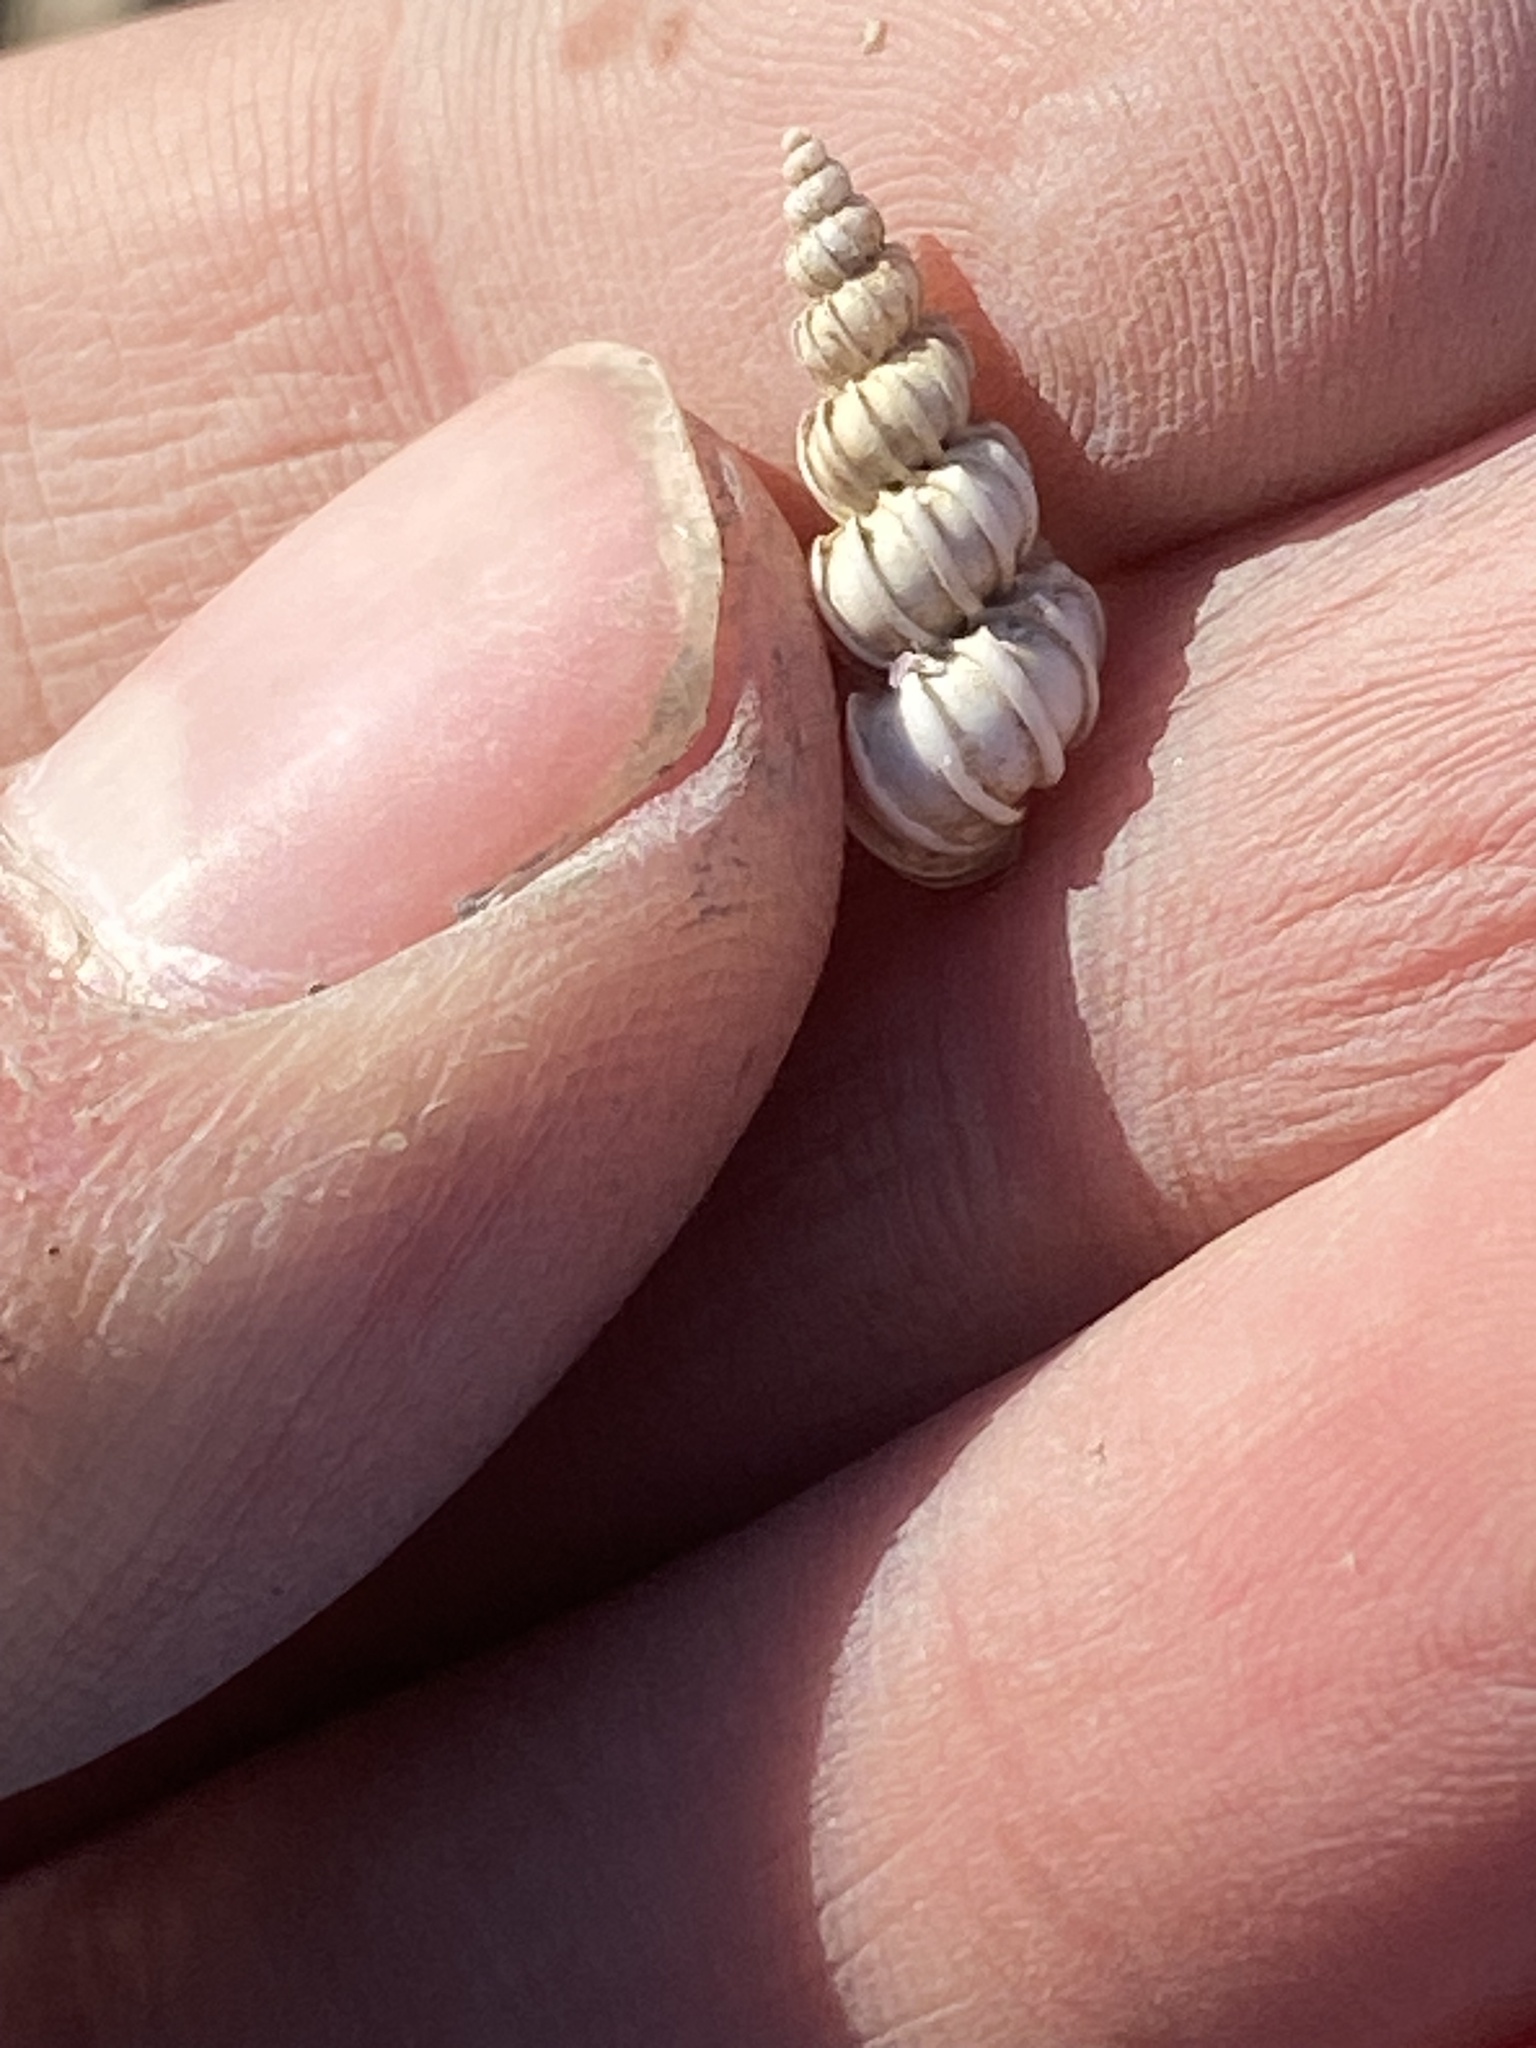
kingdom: Animalia
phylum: Mollusca
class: Gastropoda
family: Epitoniidae
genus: Epitonium
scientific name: Epitonium tinctum
